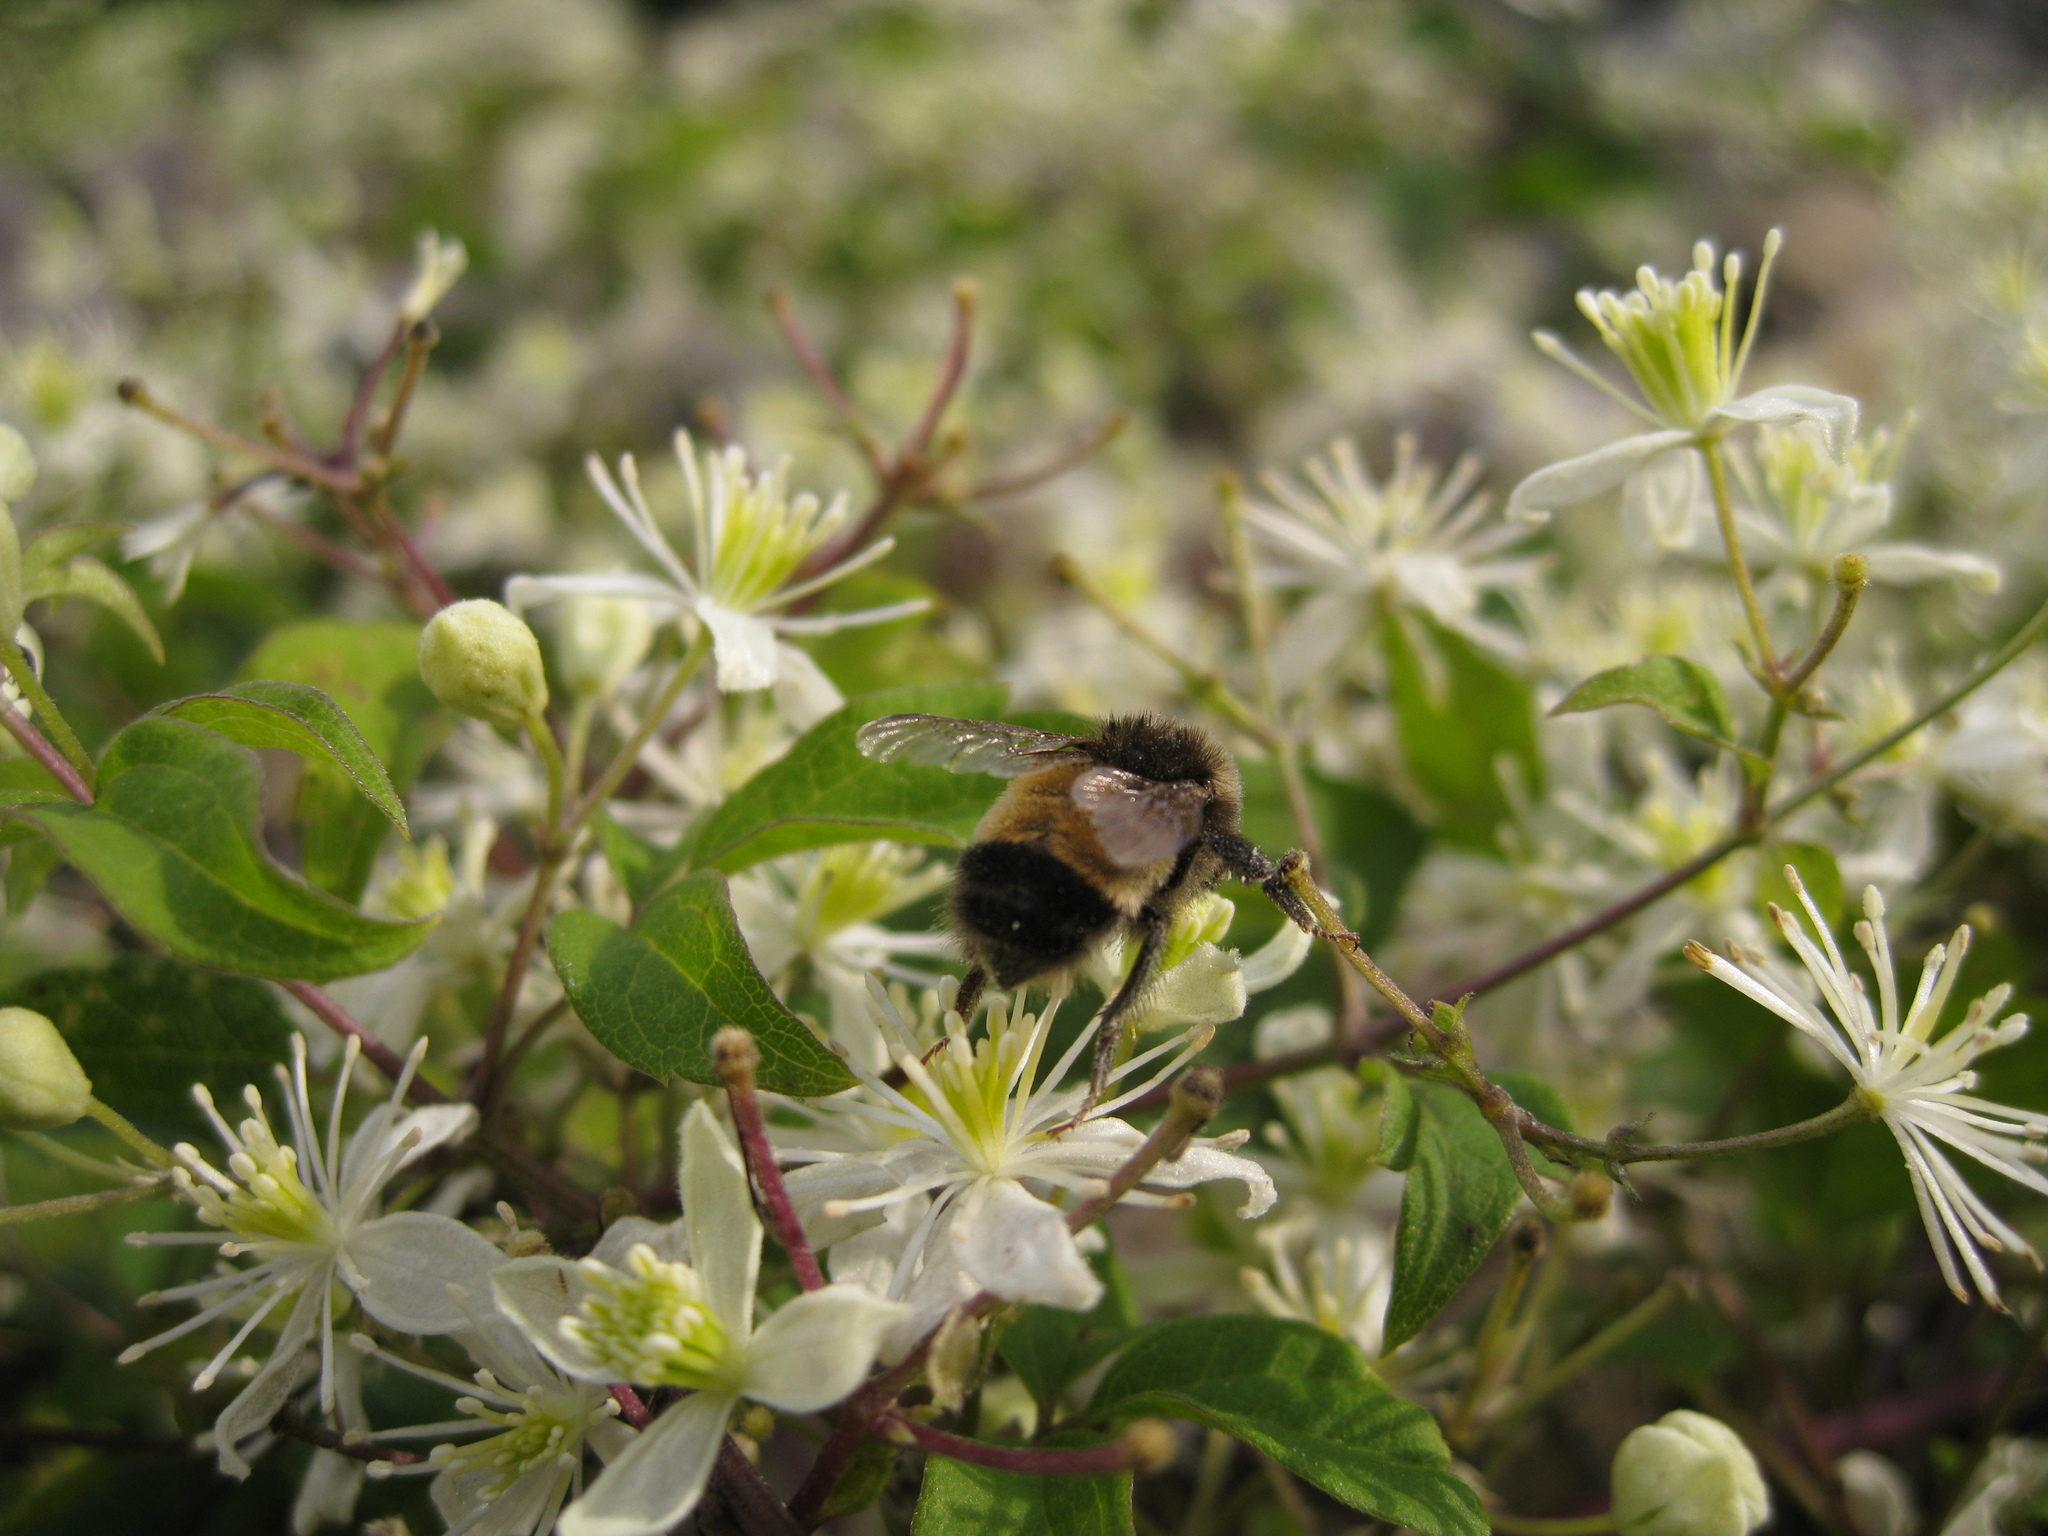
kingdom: Animalia
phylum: Arthropoda
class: Insecta
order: Hymenoptera
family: Apidae
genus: Bombus
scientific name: Bombus terricola
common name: Yellow-banded bumble bee
